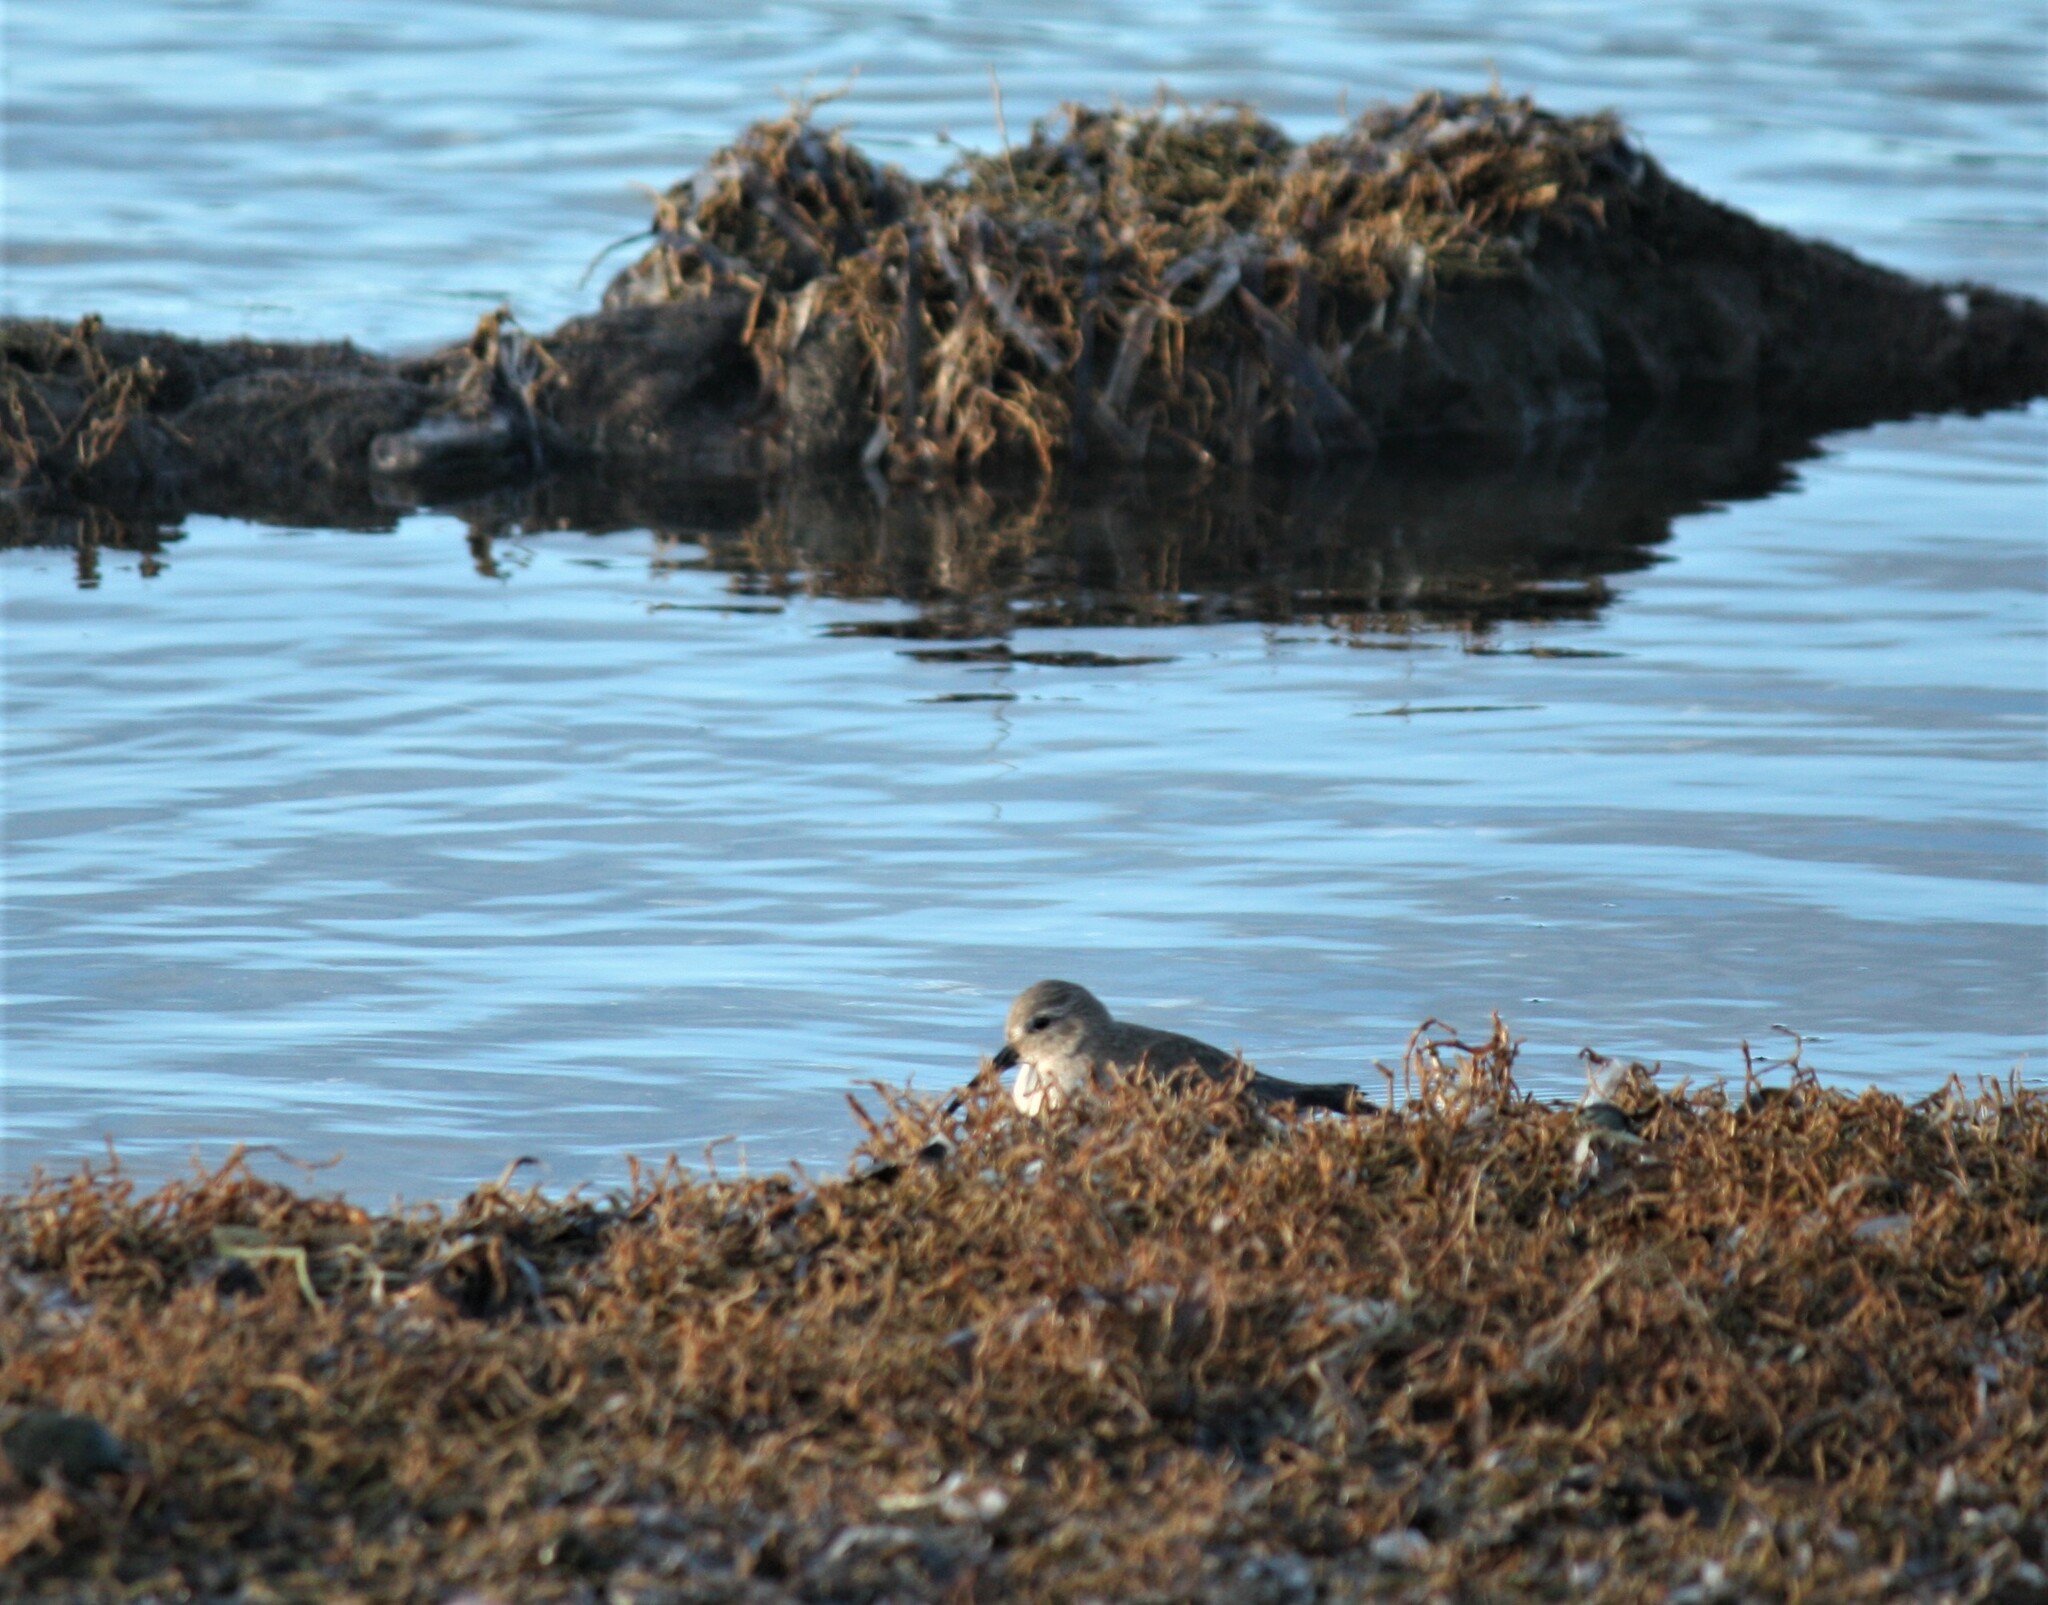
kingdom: Animalia
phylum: Chordata
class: Aves
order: Charadriiformes
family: Scolopacidae
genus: Calidris
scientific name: Calidris alpina
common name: Dunlin
